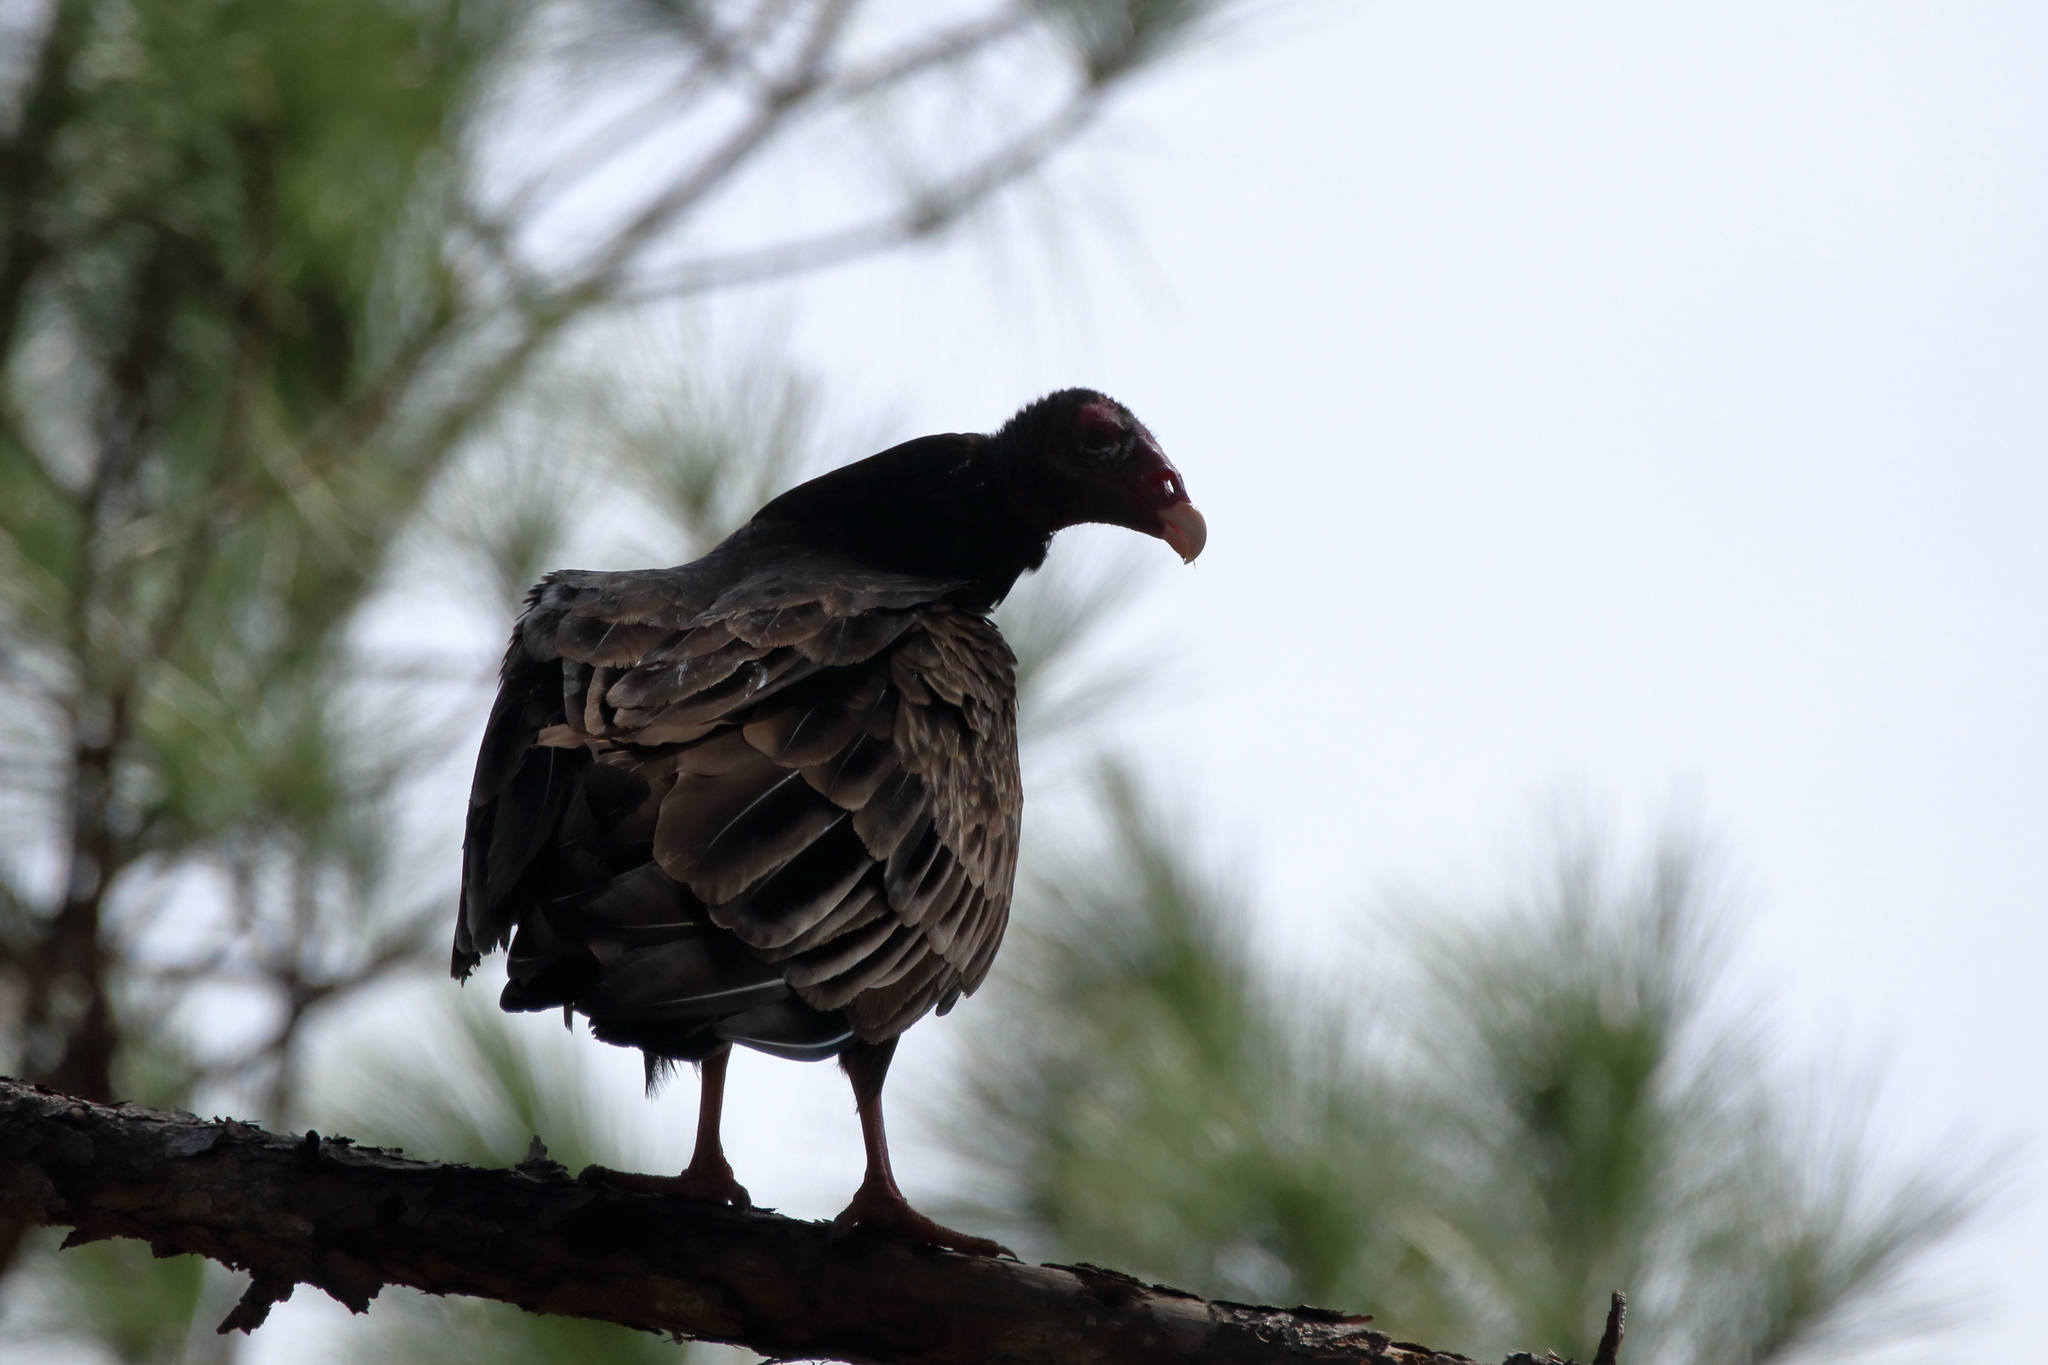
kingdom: Animalia
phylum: Chordata
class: Aves
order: Accipitriformes
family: Cathartidae
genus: Cathartes
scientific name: Cathartes aura
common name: Turkey vulture
